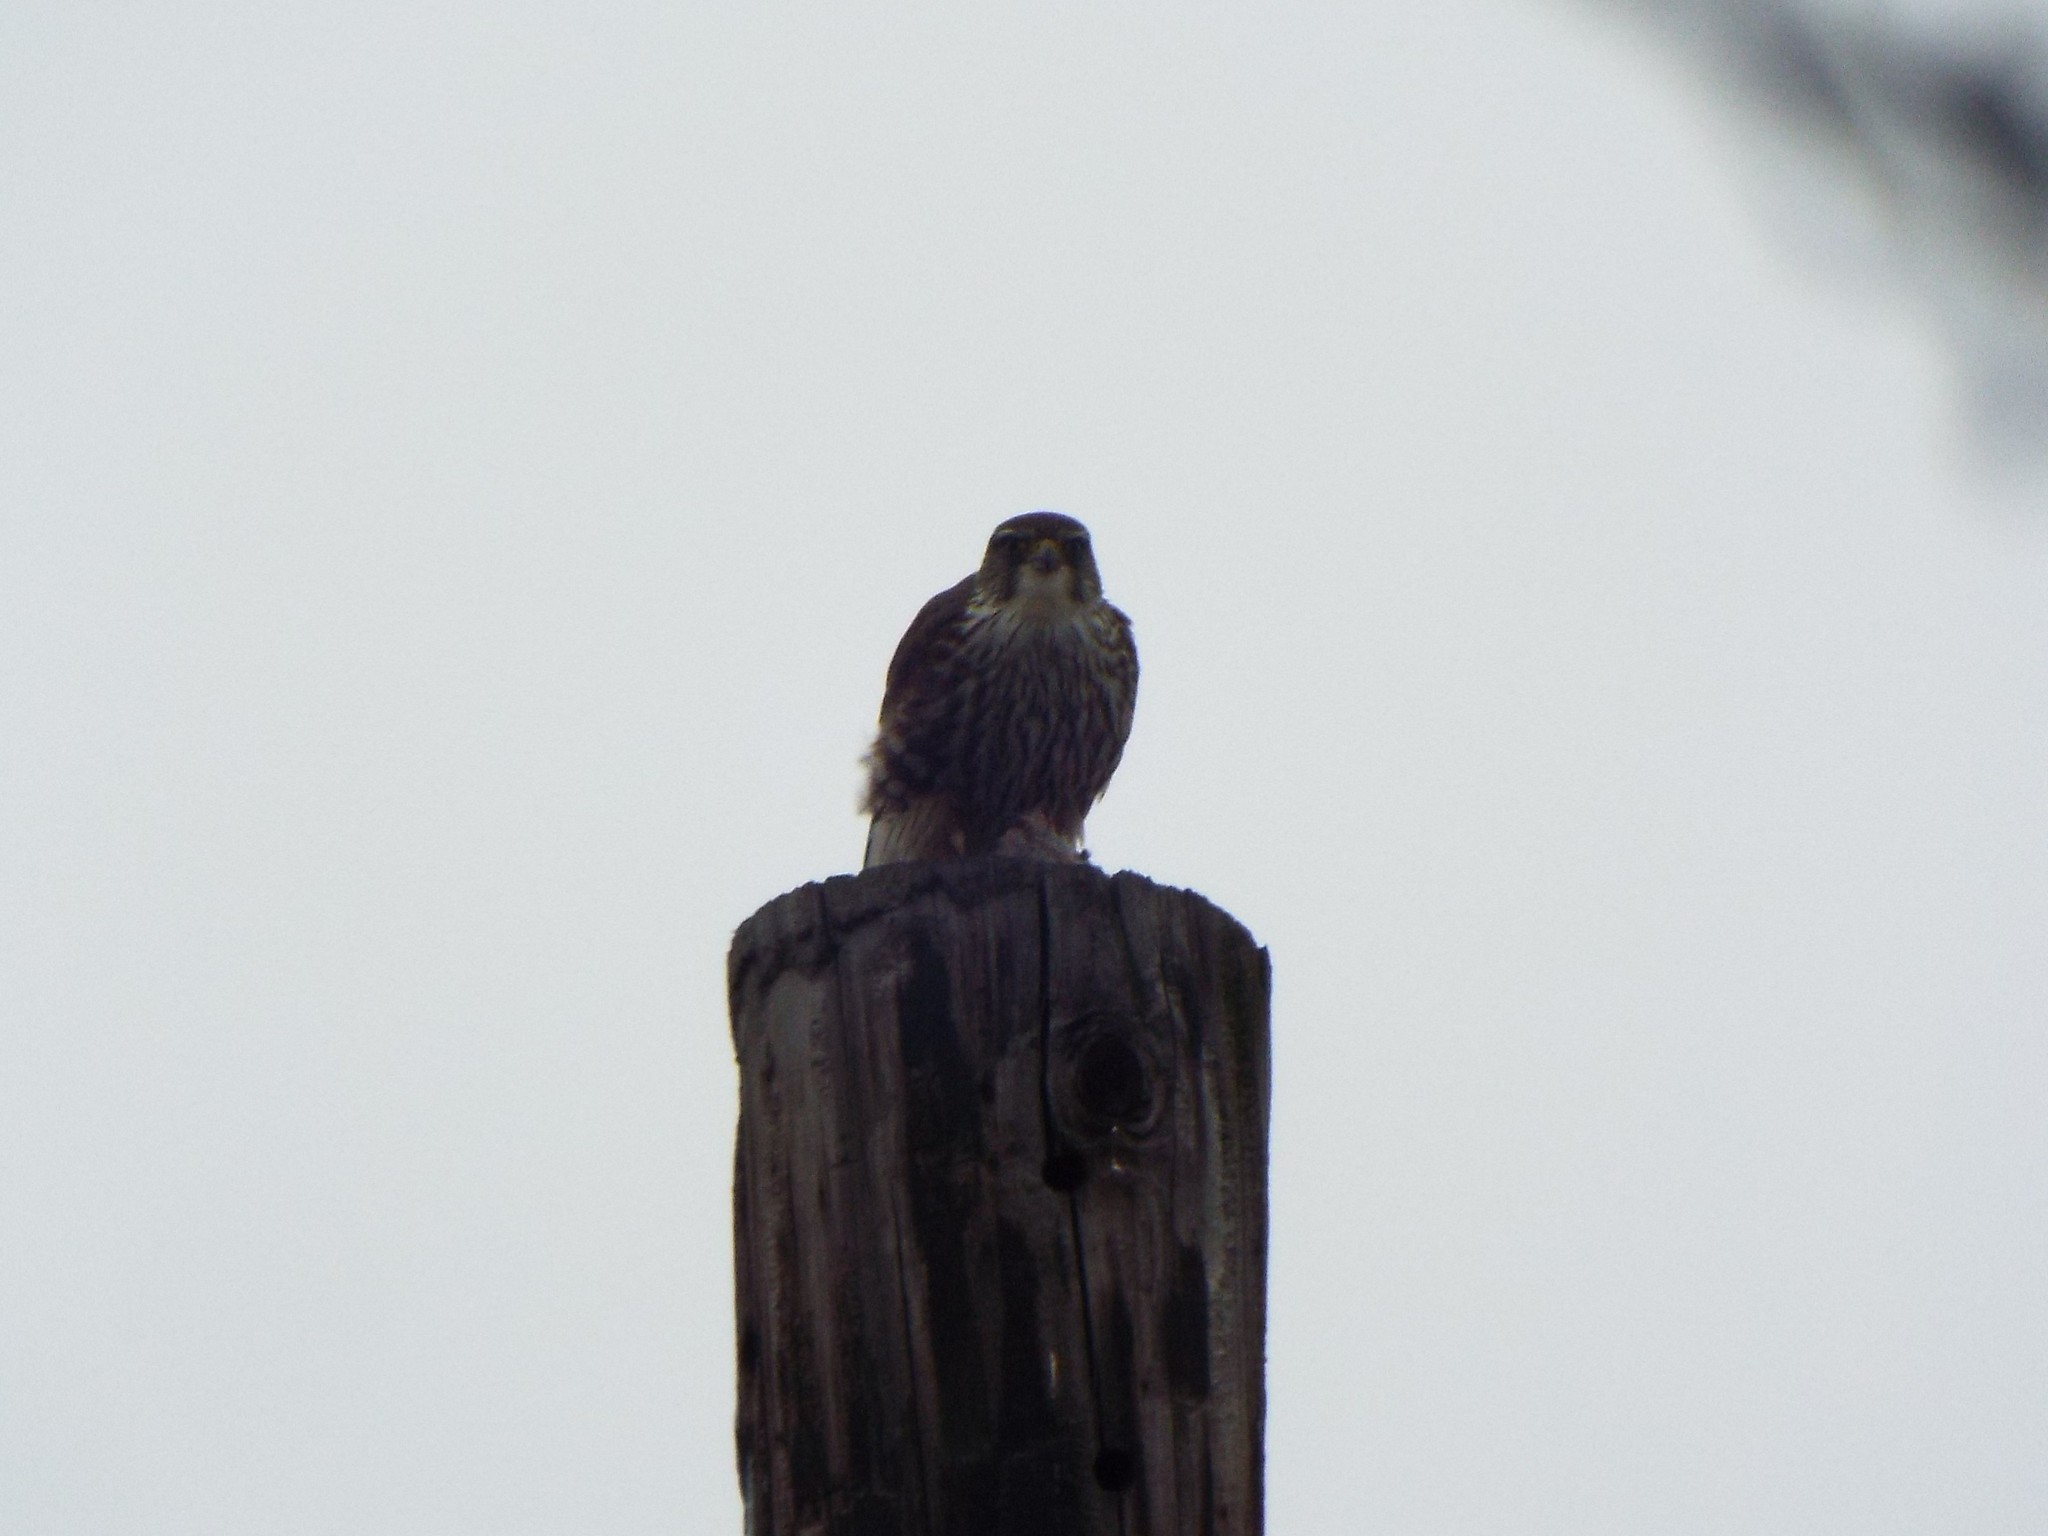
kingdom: Animalia
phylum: Chordata
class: Aves
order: Falconiformes
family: Falconidae
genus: Falco
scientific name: Falco columbarius
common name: Merlin
